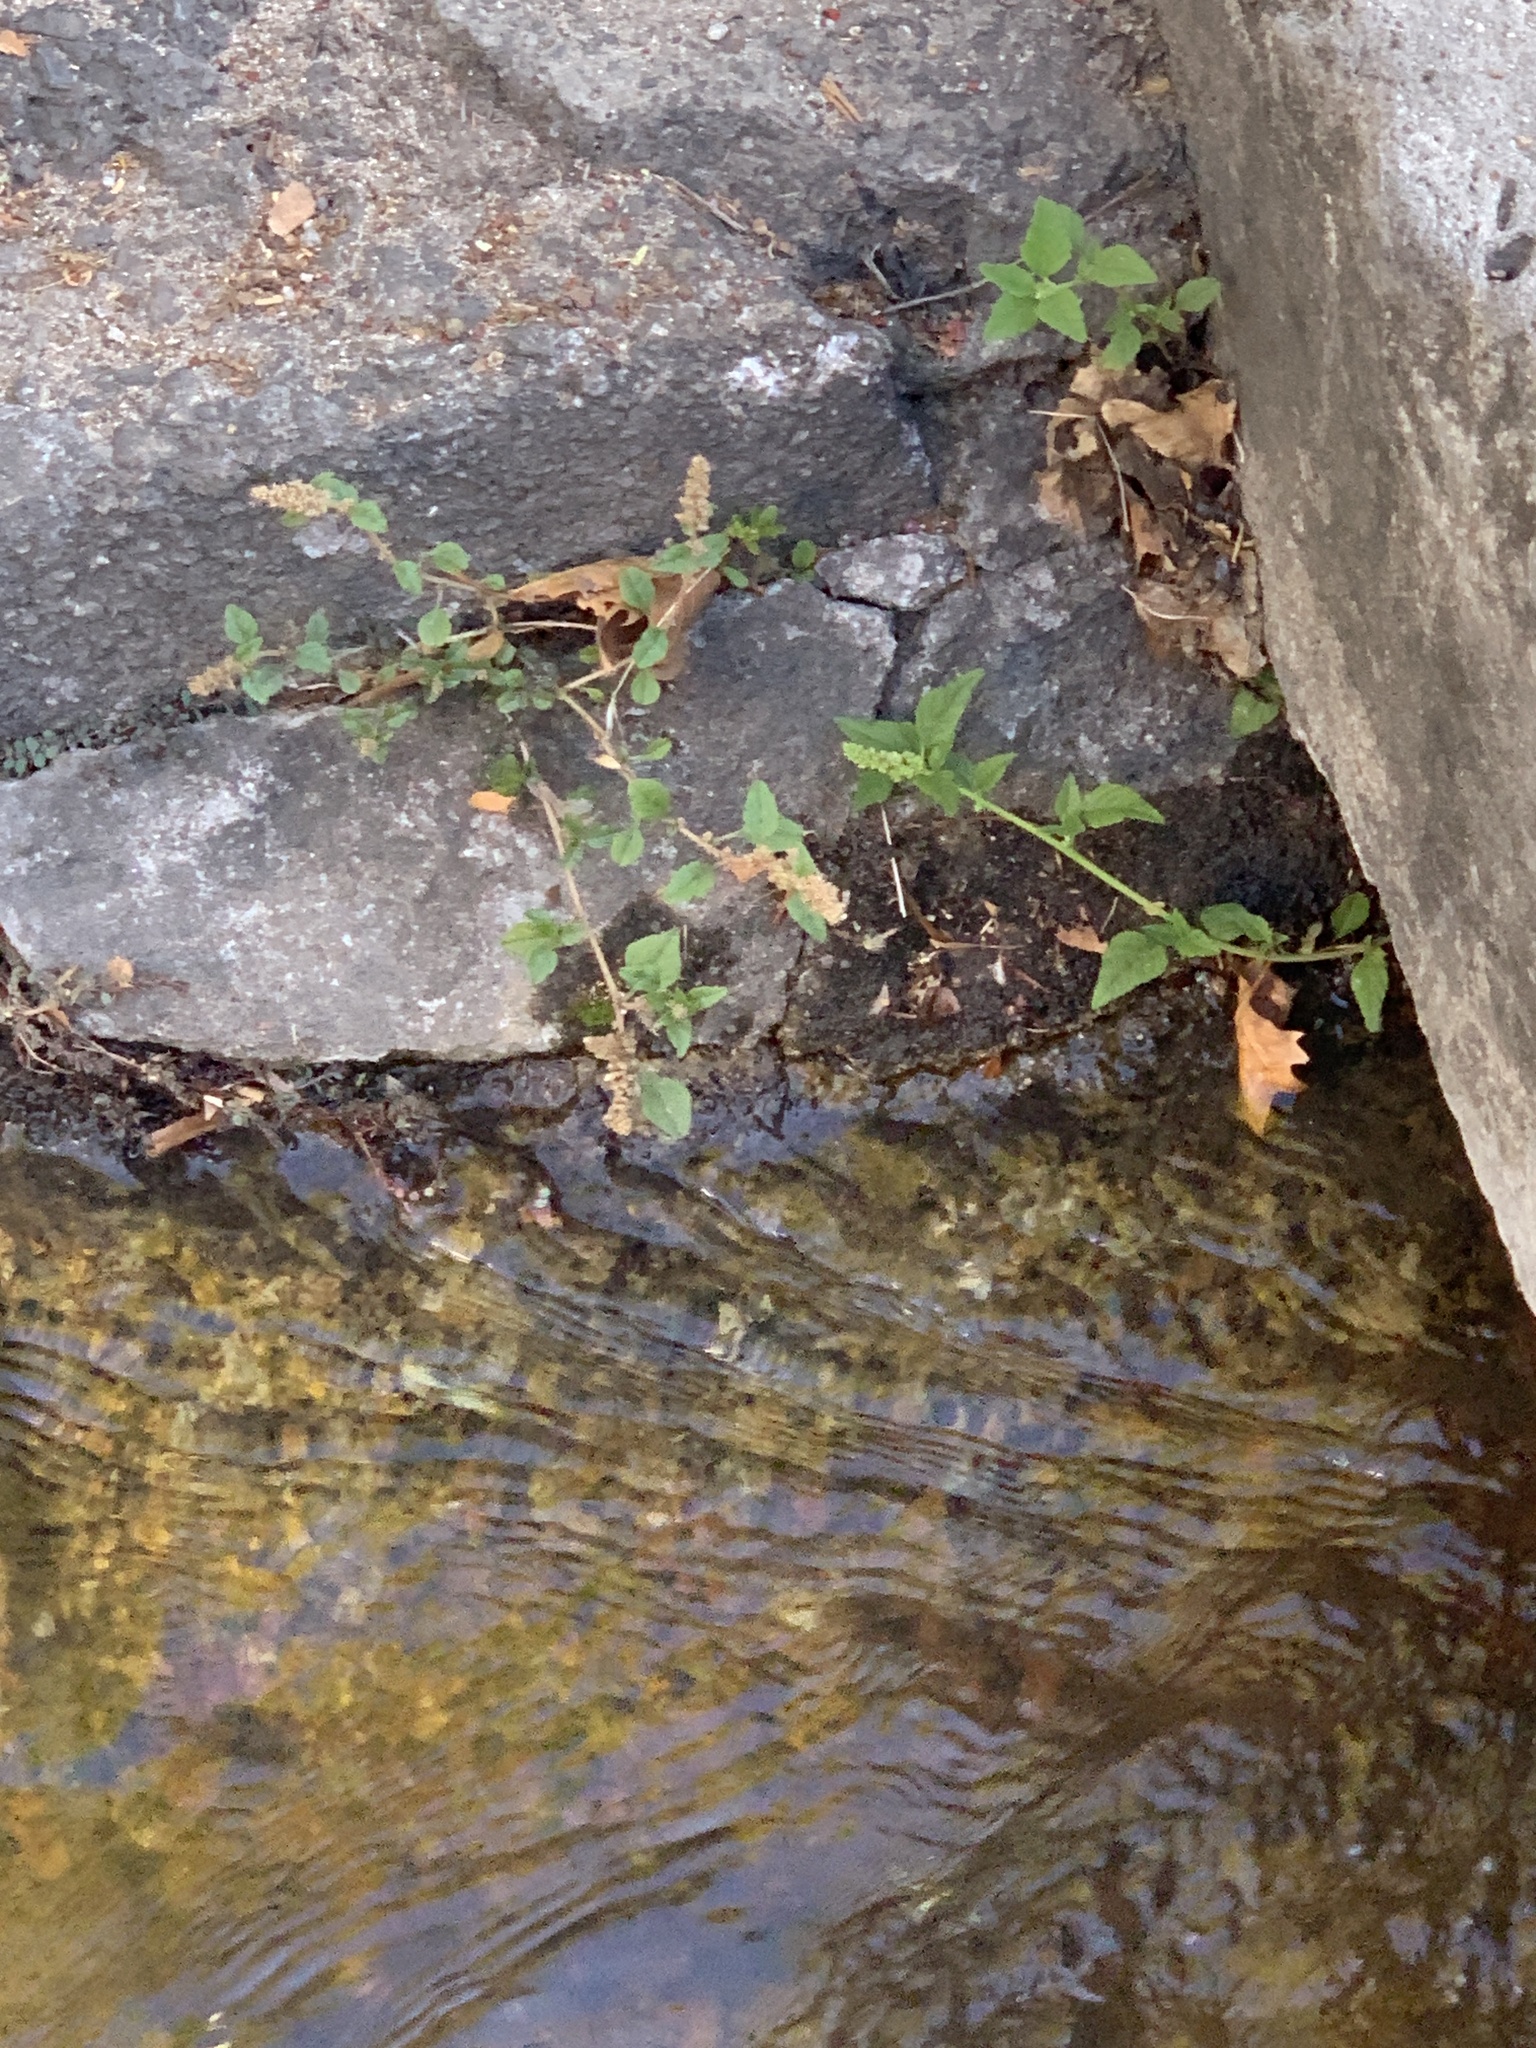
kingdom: Plantae
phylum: Tracheophyta
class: Magnoliopsida
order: Caryophyllales
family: Amaranthaceae
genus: Amaranthus
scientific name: Amaranthus deflexus
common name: Perennial pigweed
